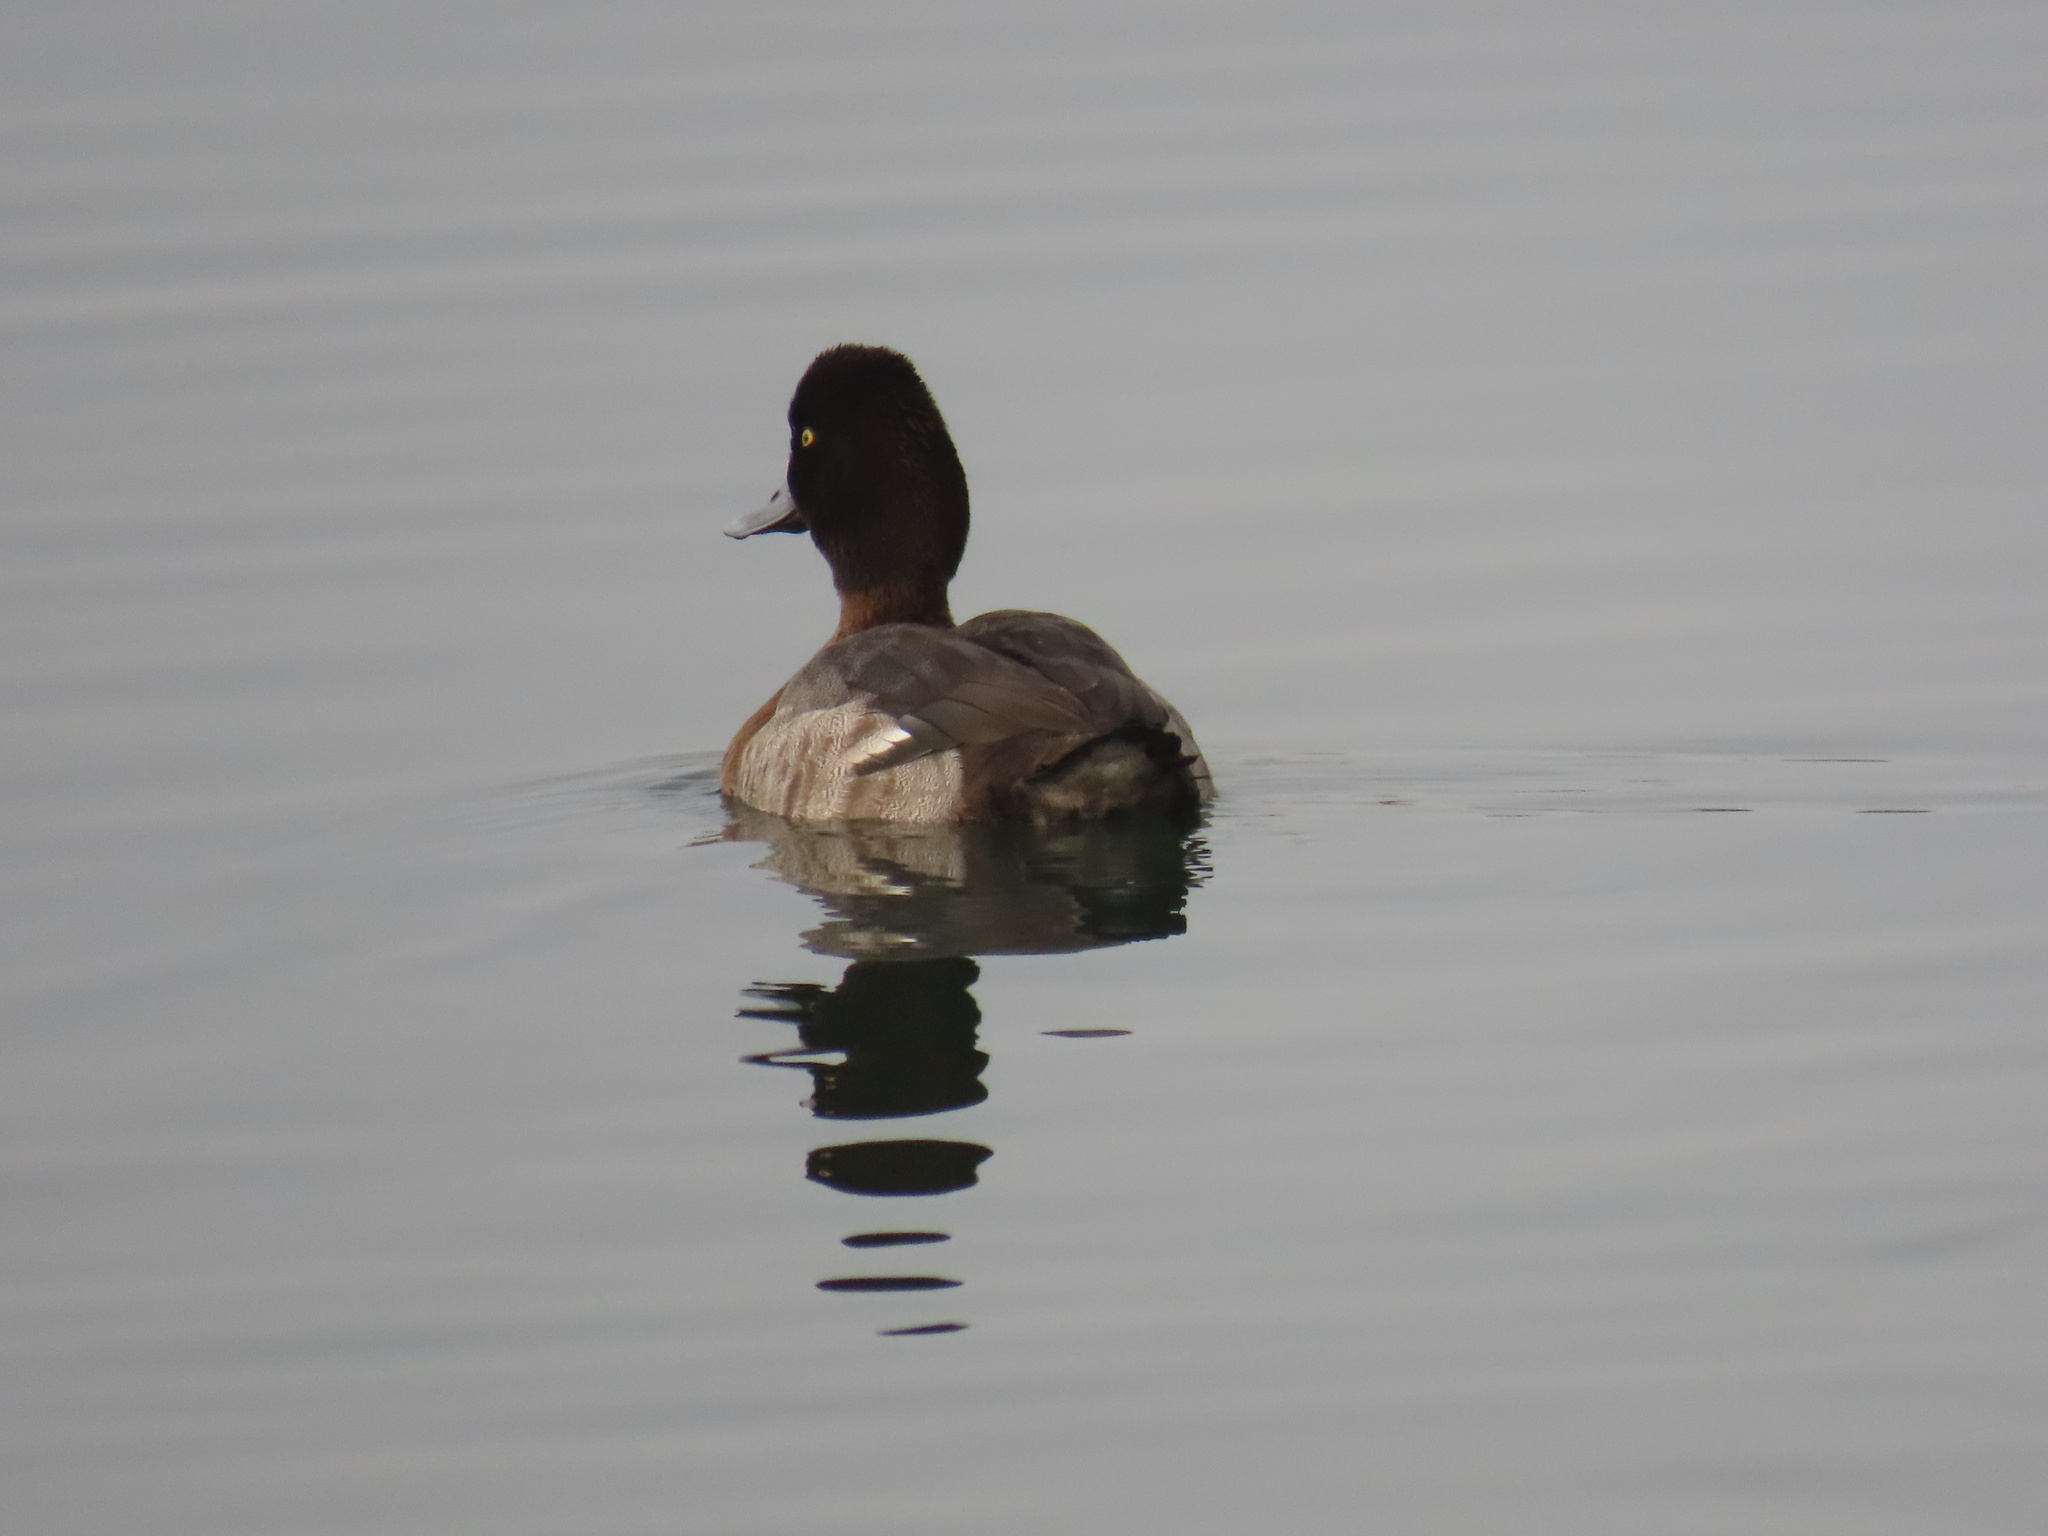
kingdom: Animalia
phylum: Chordata
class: Aves
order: Anseriformes
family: Anatidae
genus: Aythya
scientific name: Aythya affinis
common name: Lesser scaup
